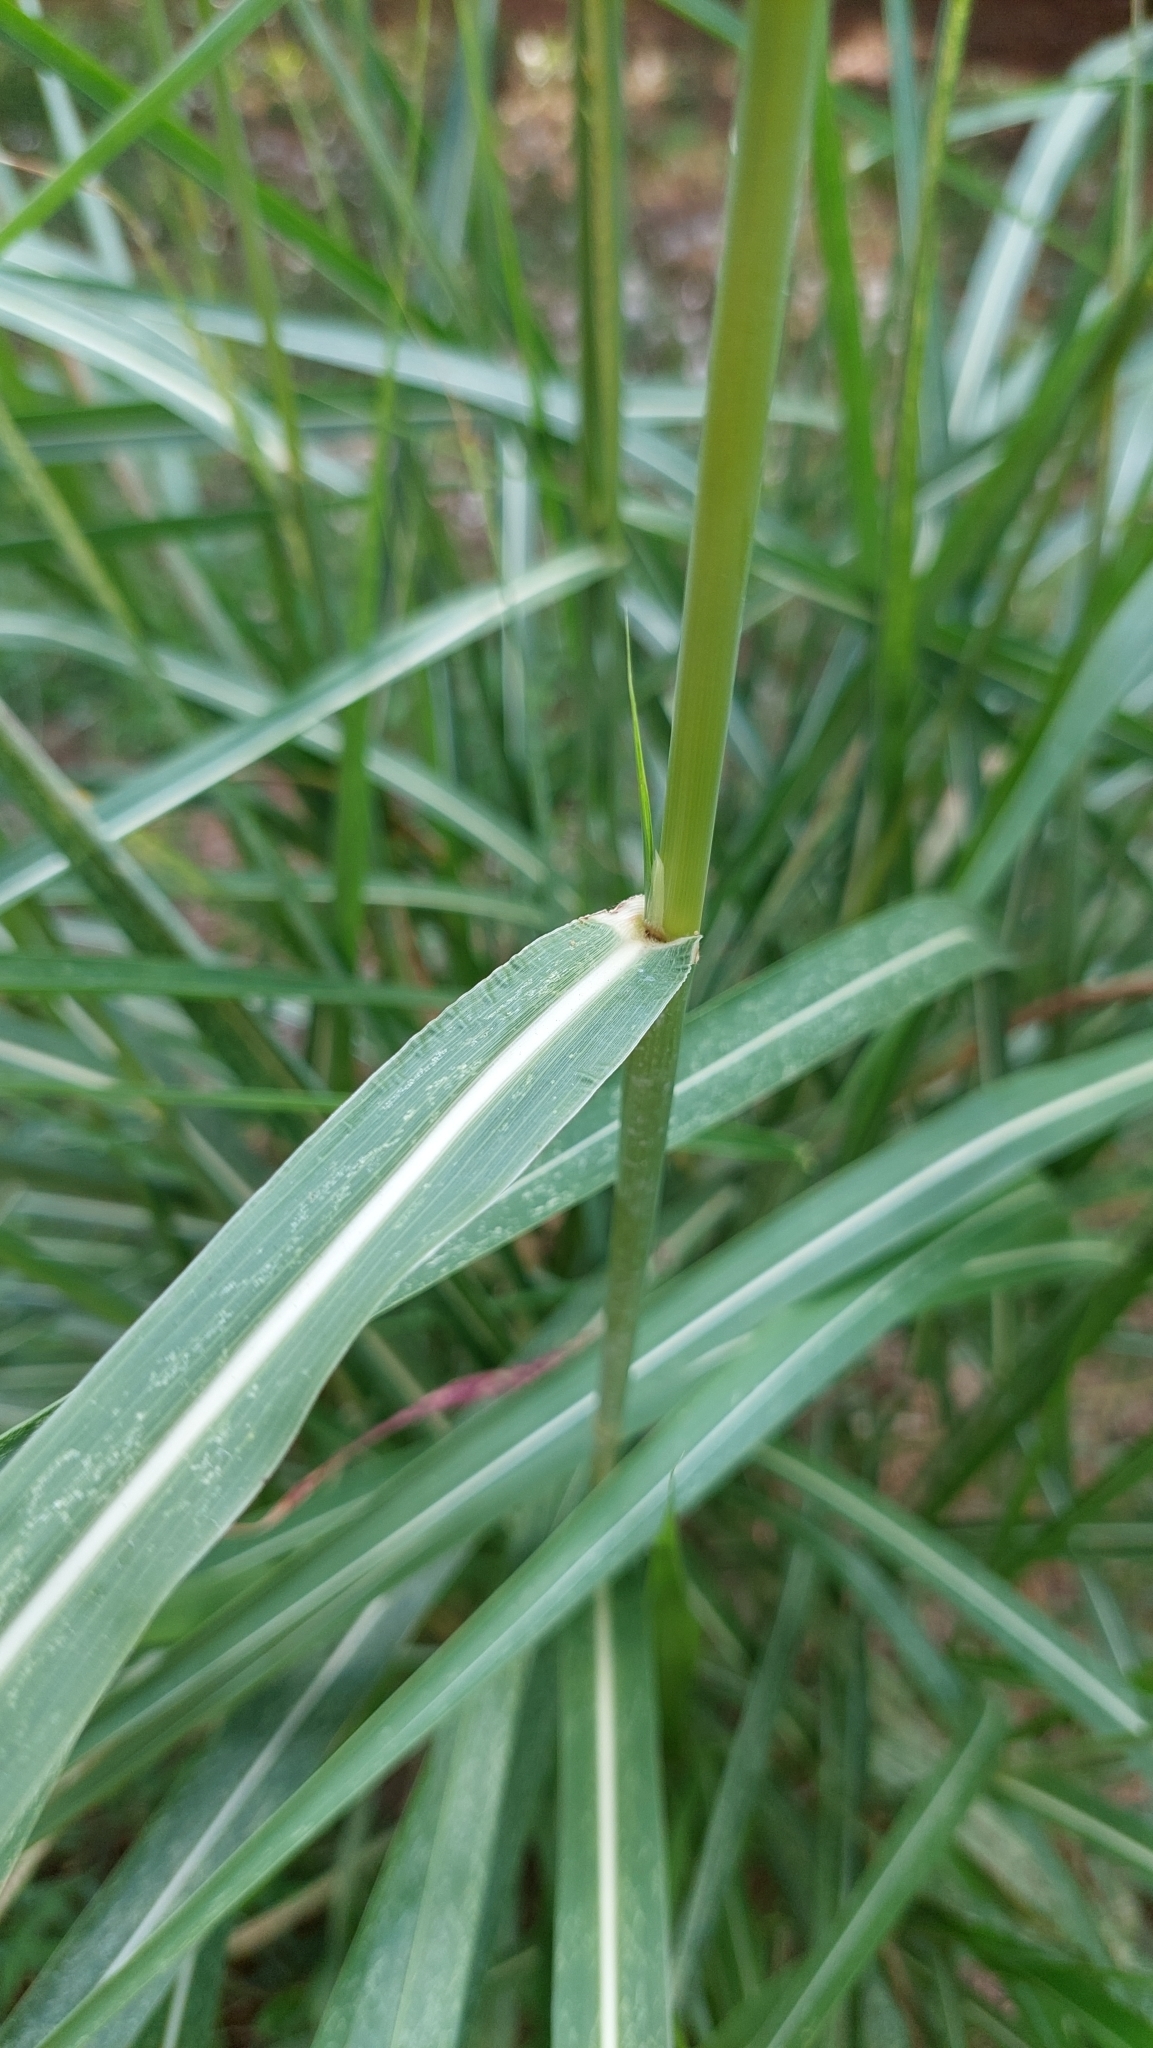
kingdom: Plantae
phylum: Tracheophyta
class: Liliopsida
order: Poales
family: Poaceae
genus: Sorghum
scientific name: Sorghum halepense
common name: Johnson-grass
